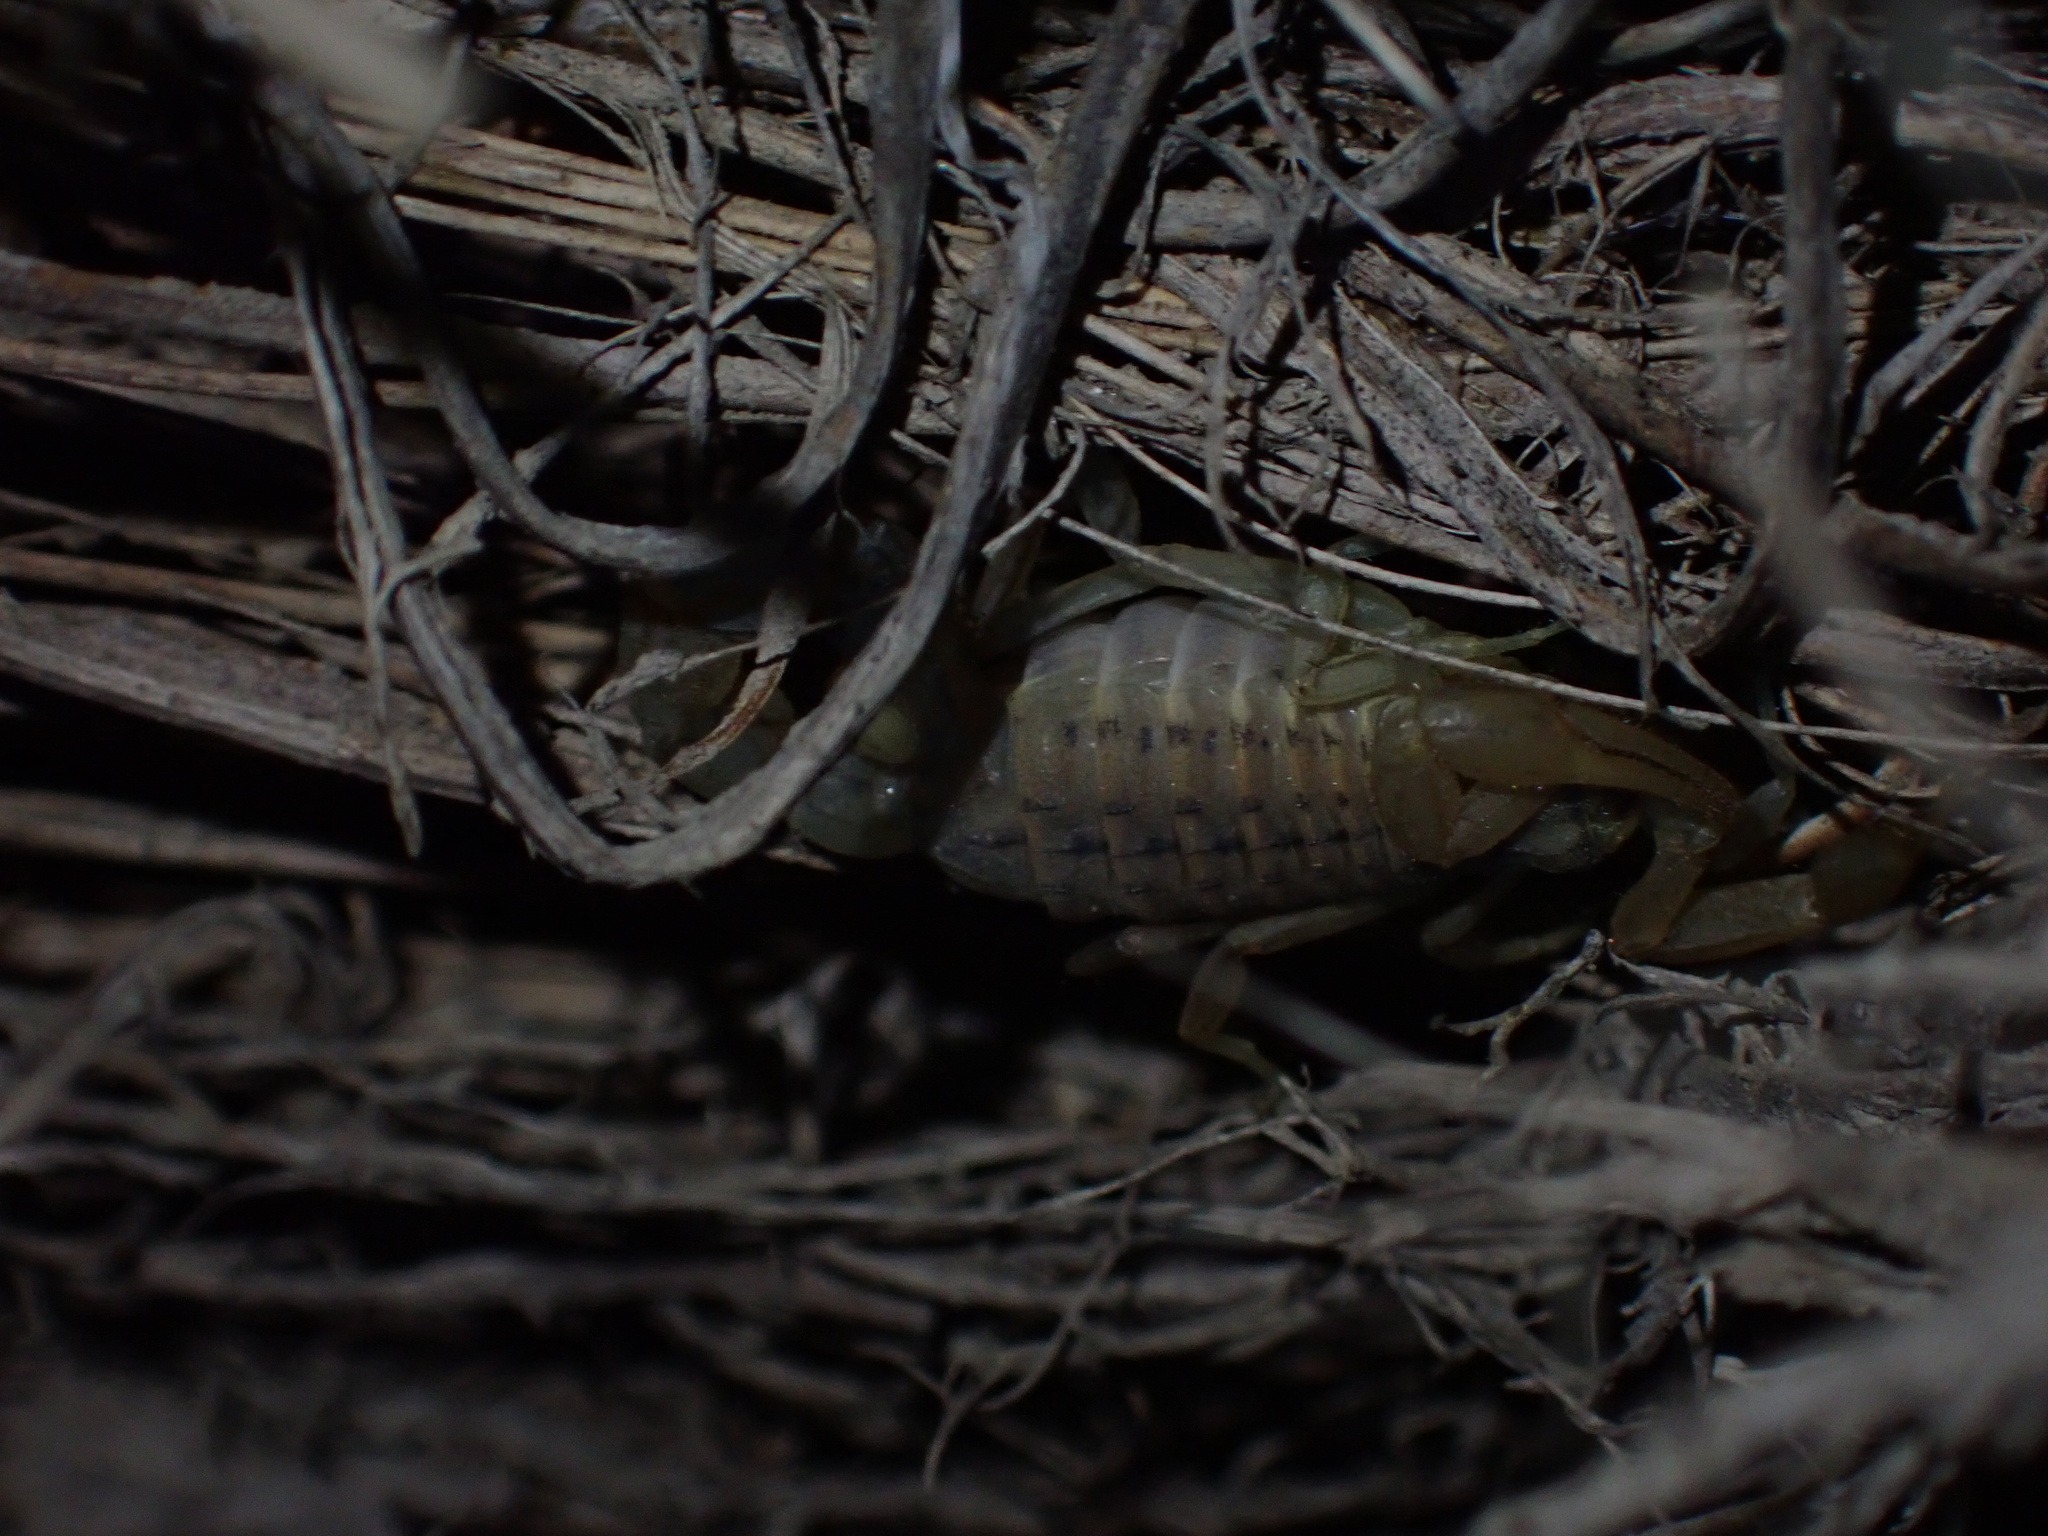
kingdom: Animalia
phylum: Arthropoda
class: Arachnida
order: Scorpiones
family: Buthidae
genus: Mesobuthus
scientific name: Mesobuthus mirshamsii
